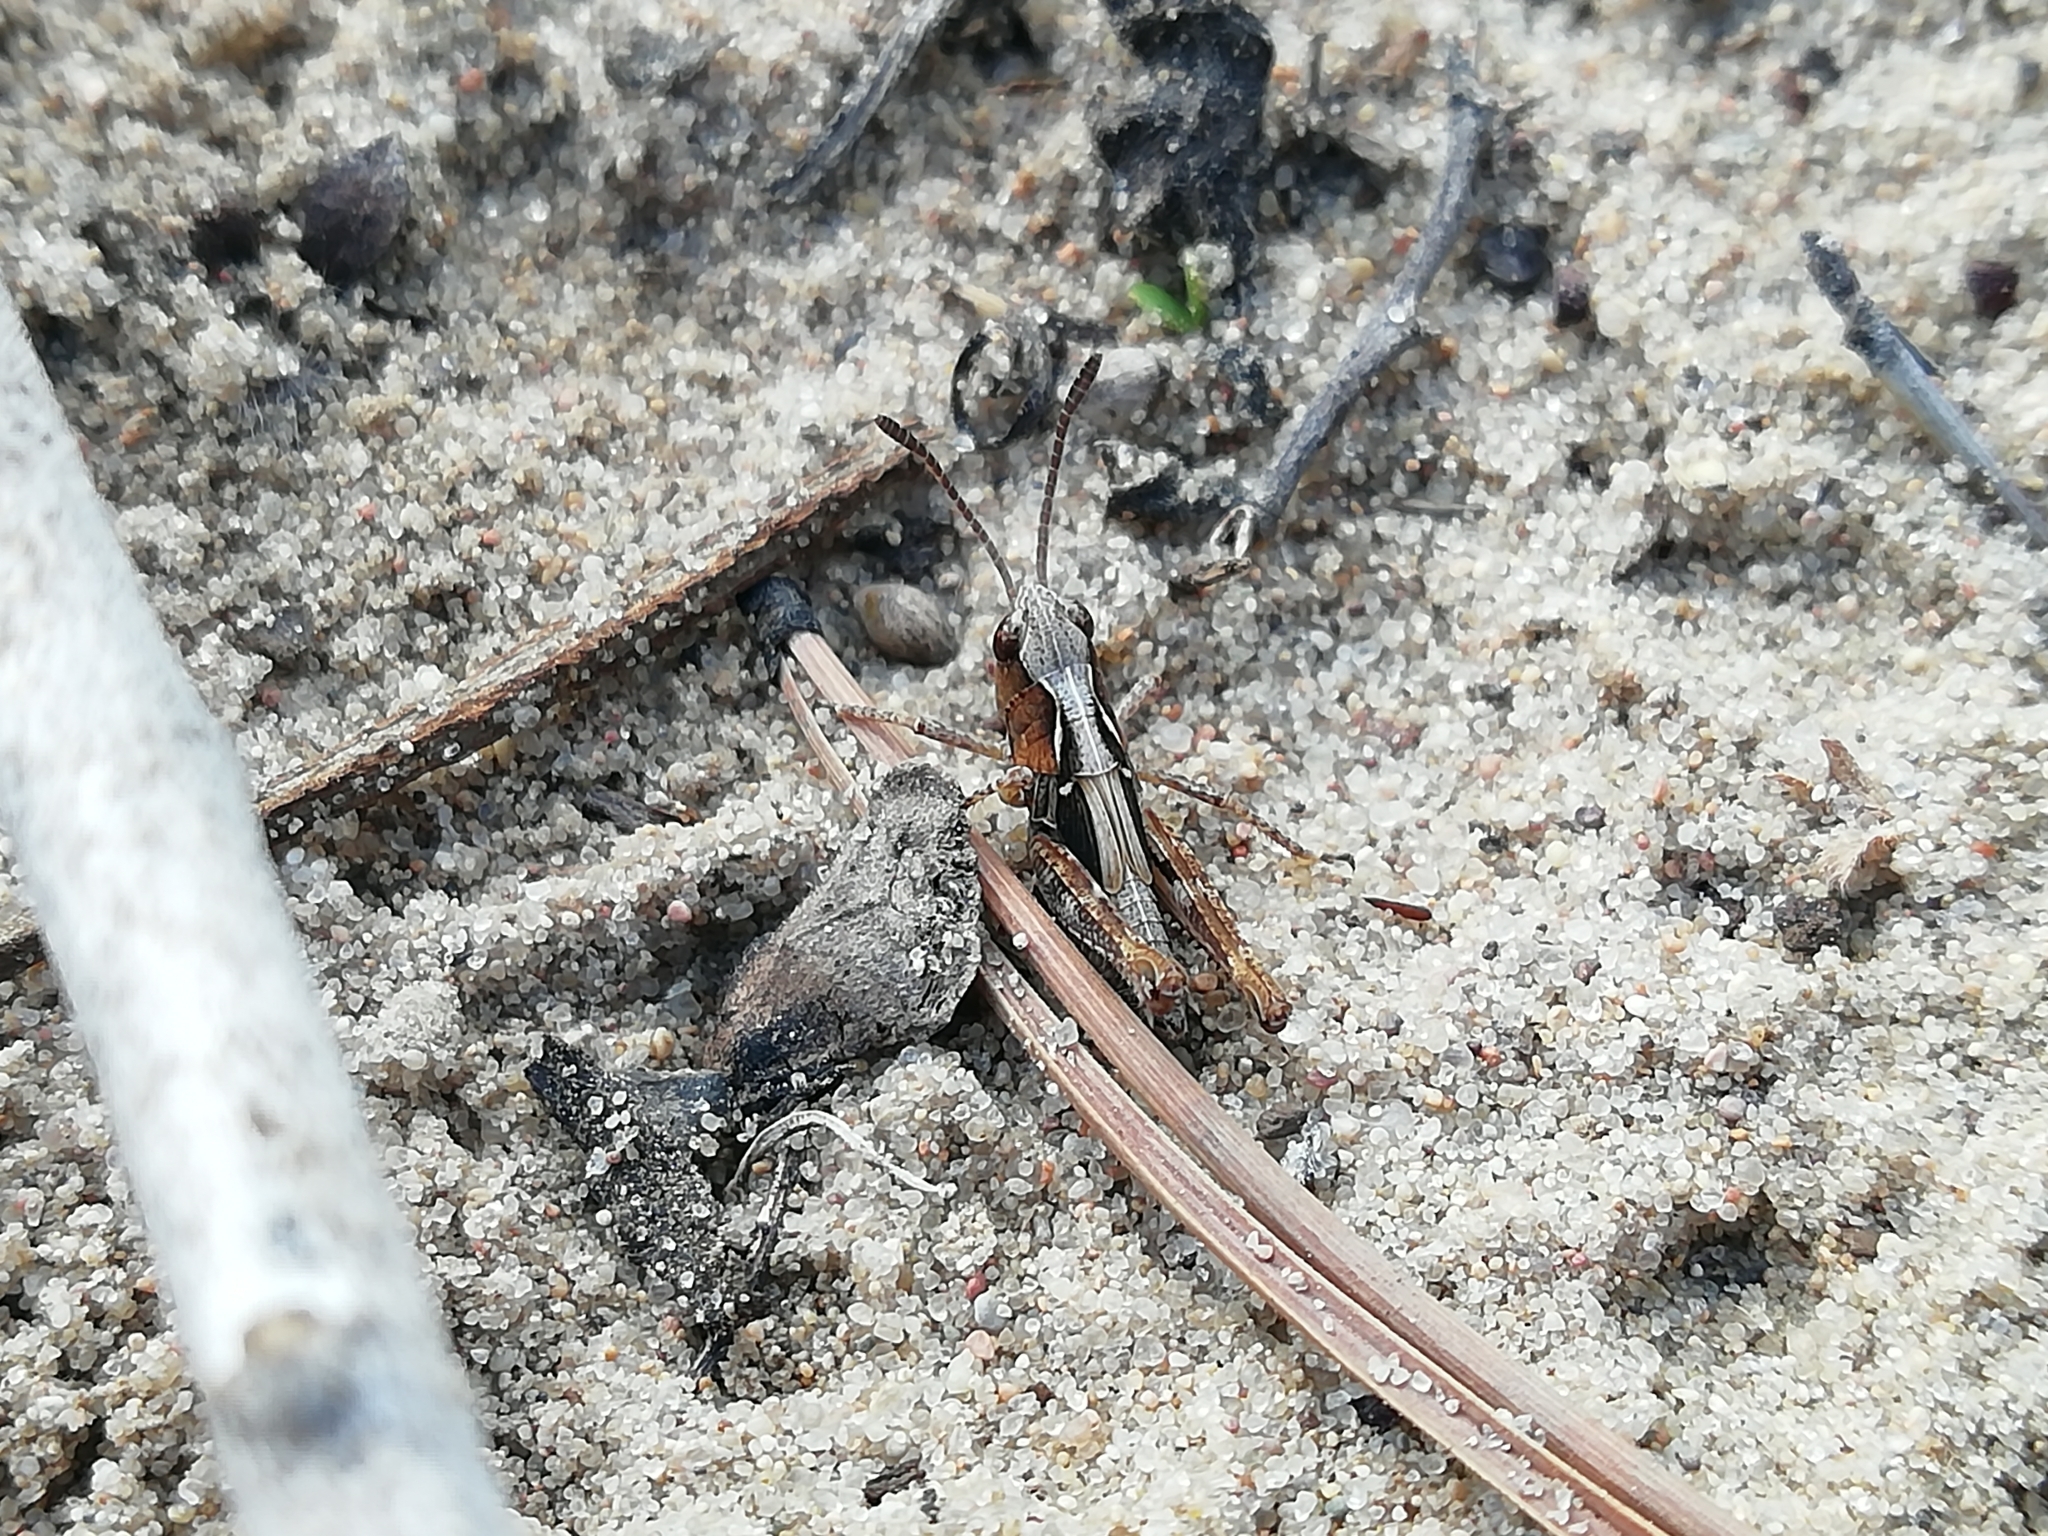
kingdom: Animalia
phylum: Arthropoda
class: Insecta
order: Orthoptera
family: Acrididae
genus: Myrmeleotettix
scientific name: Myrmeleotettix maculatus
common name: Mottled grasshopper
